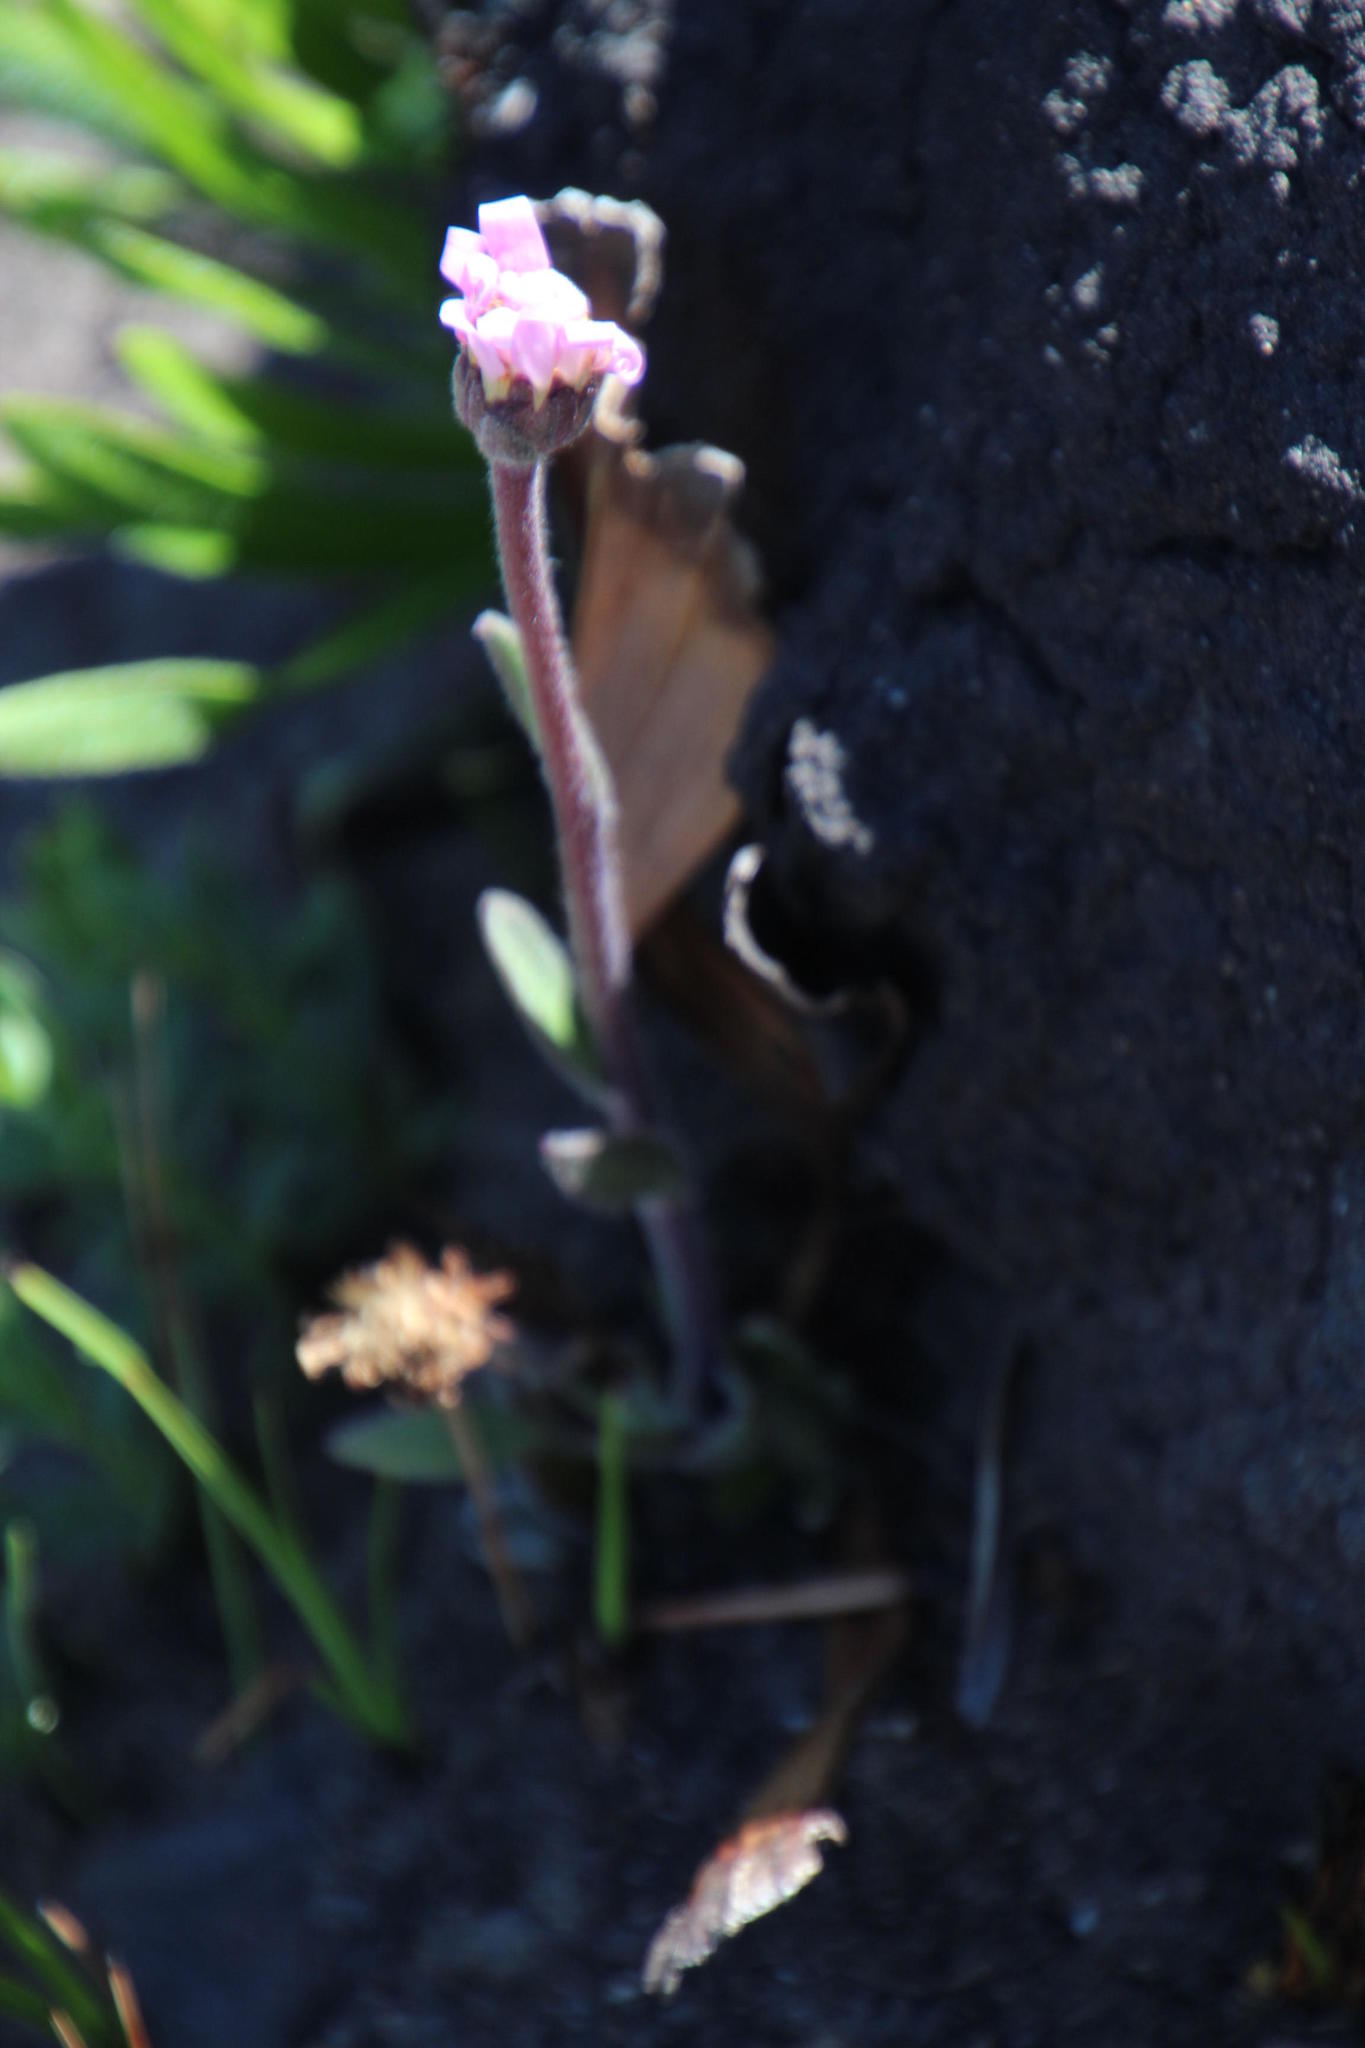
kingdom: Plantae
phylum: Tracheophyta
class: Magnoliopsida
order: Asterales
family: Asteraceae
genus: Mairia
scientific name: Mairia coriacea
